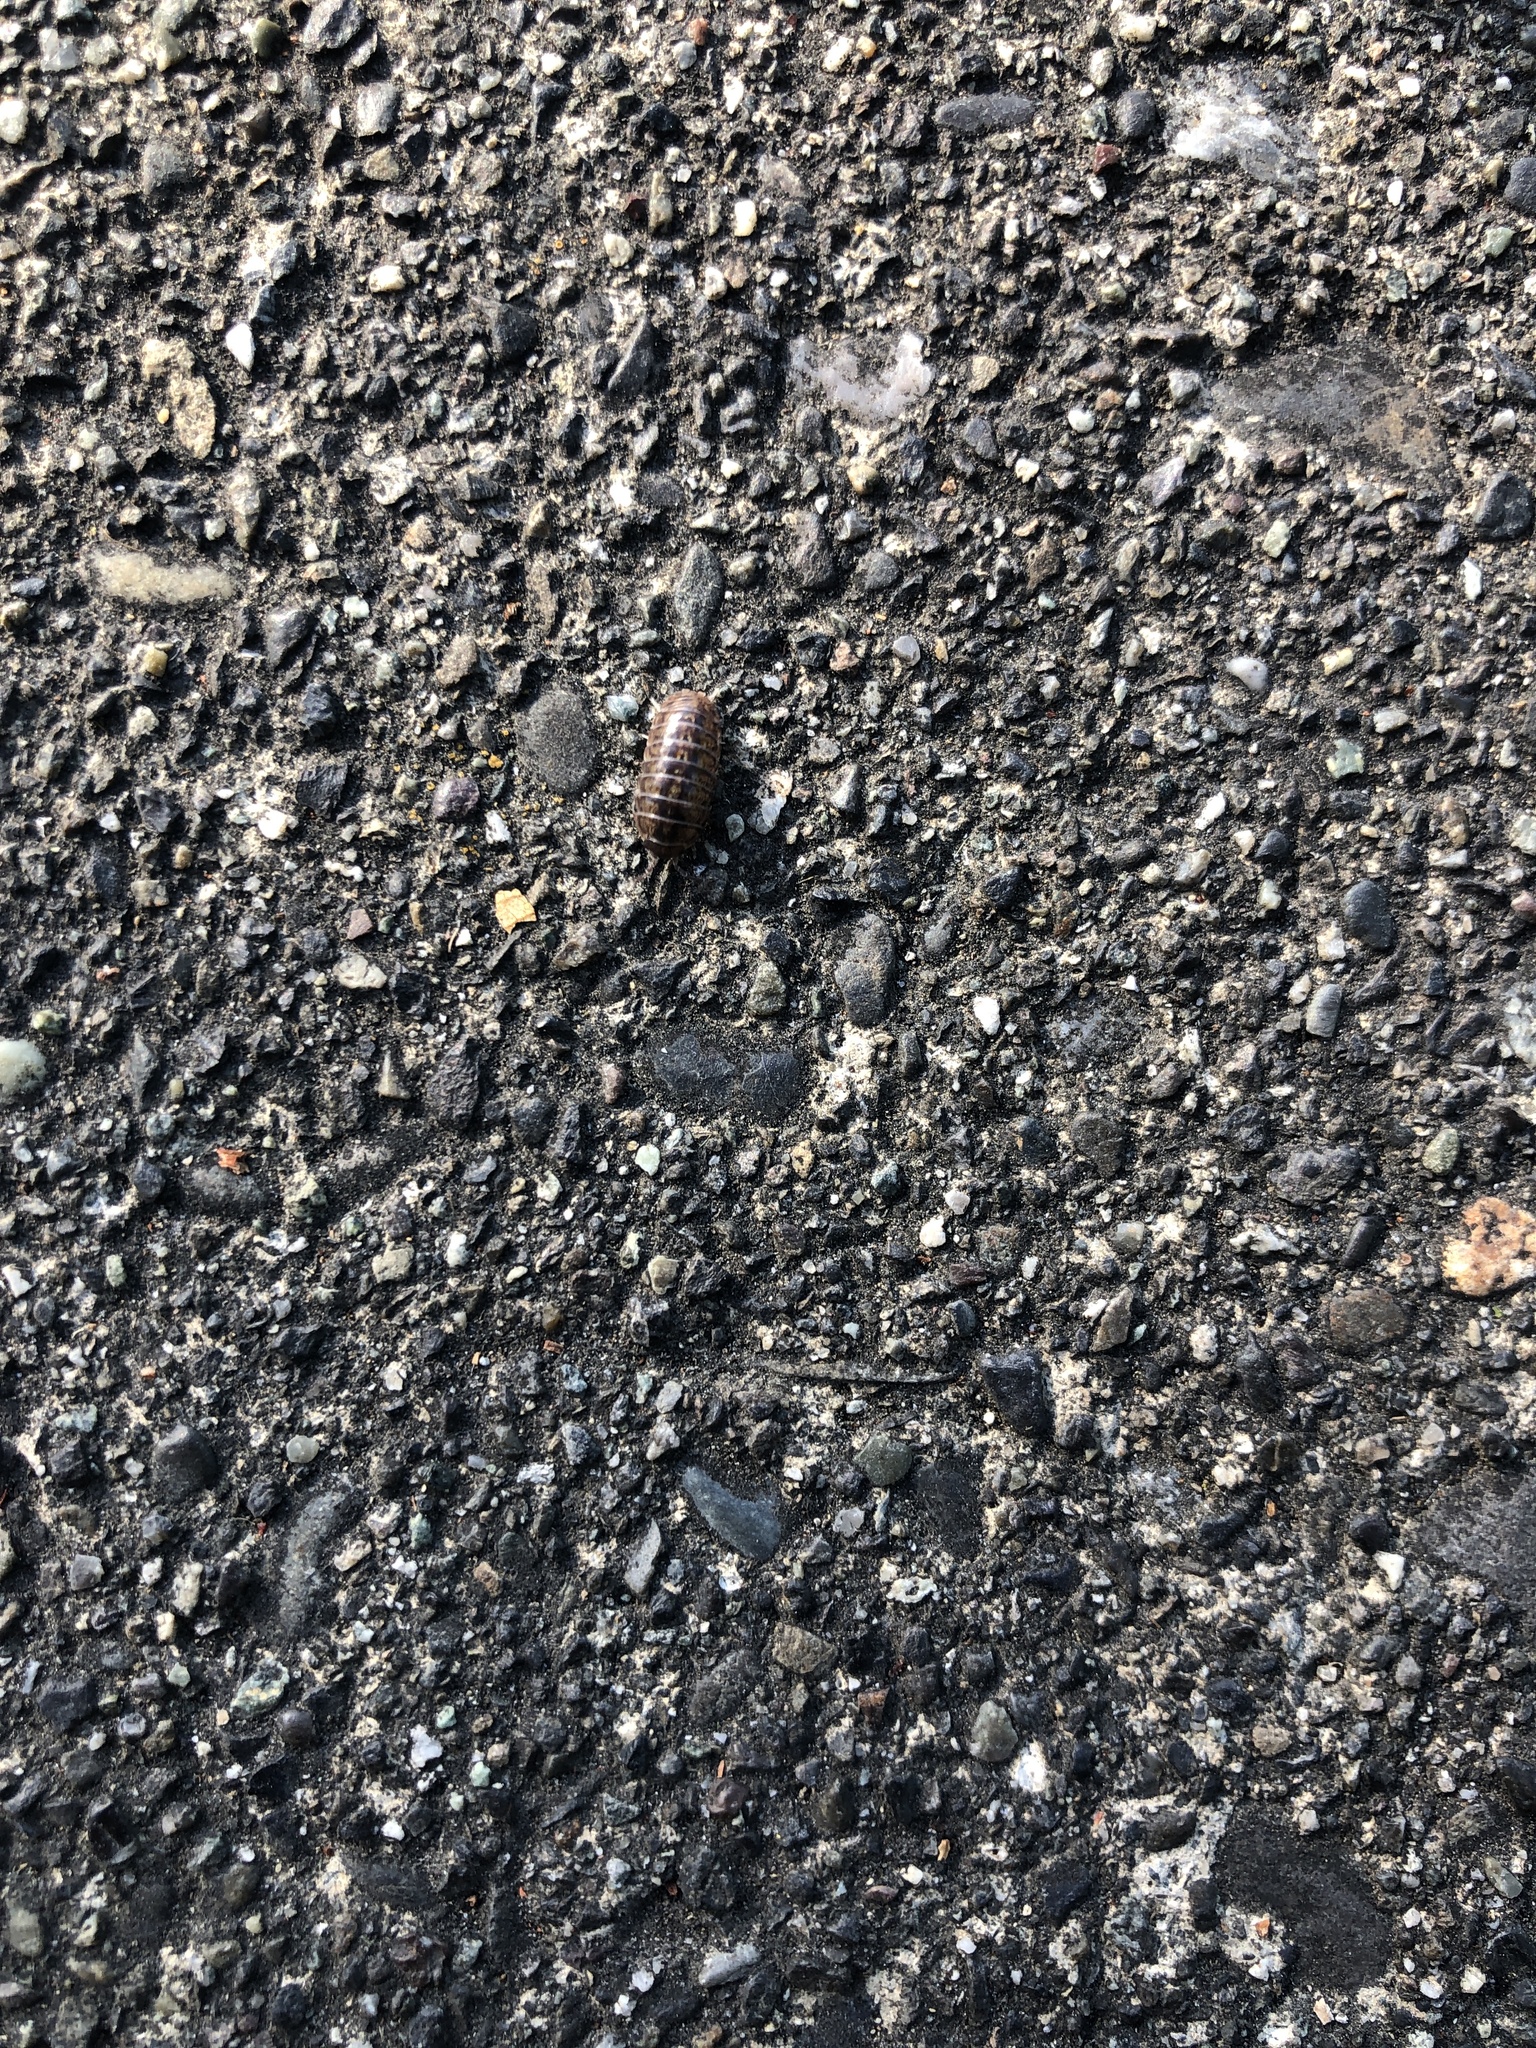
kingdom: Animalia
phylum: Arthropoda
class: Malacostraca
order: Isopoda
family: Armadillidiidae
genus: Armadillidium
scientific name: Armadillidium vulgare
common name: Common pill woodlouse
